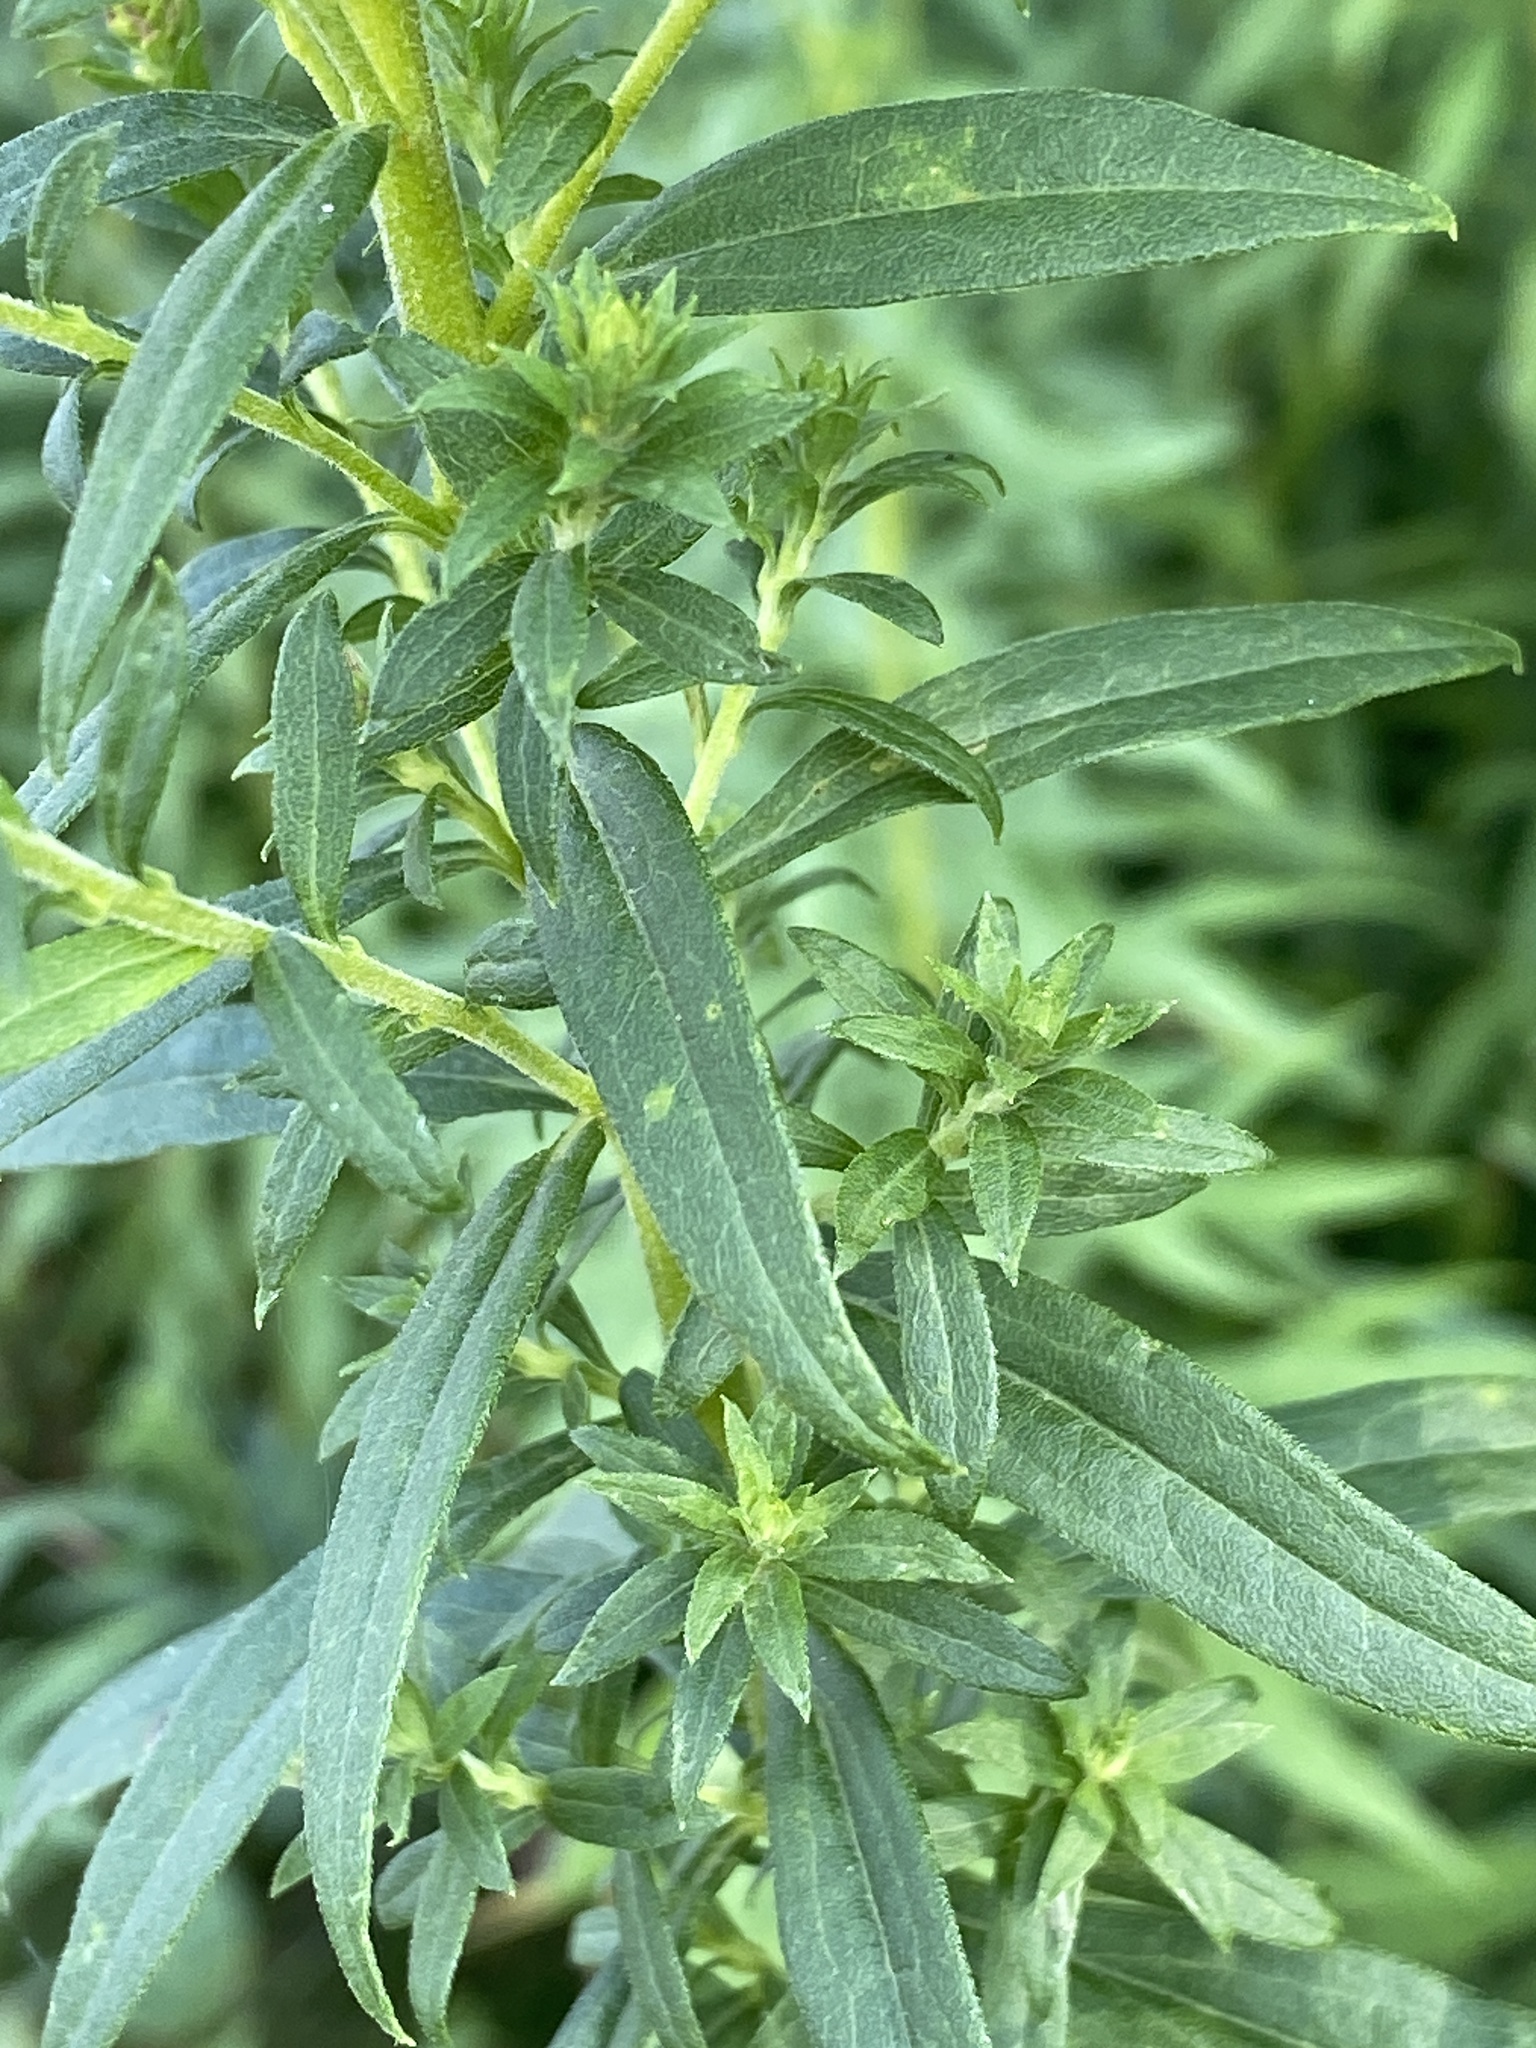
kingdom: Plantae
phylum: Tracheophyta
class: Magnoliopsida
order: Asterales
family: Asteraceae
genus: Solidago
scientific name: Solidago altissima
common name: Late goldenrod
